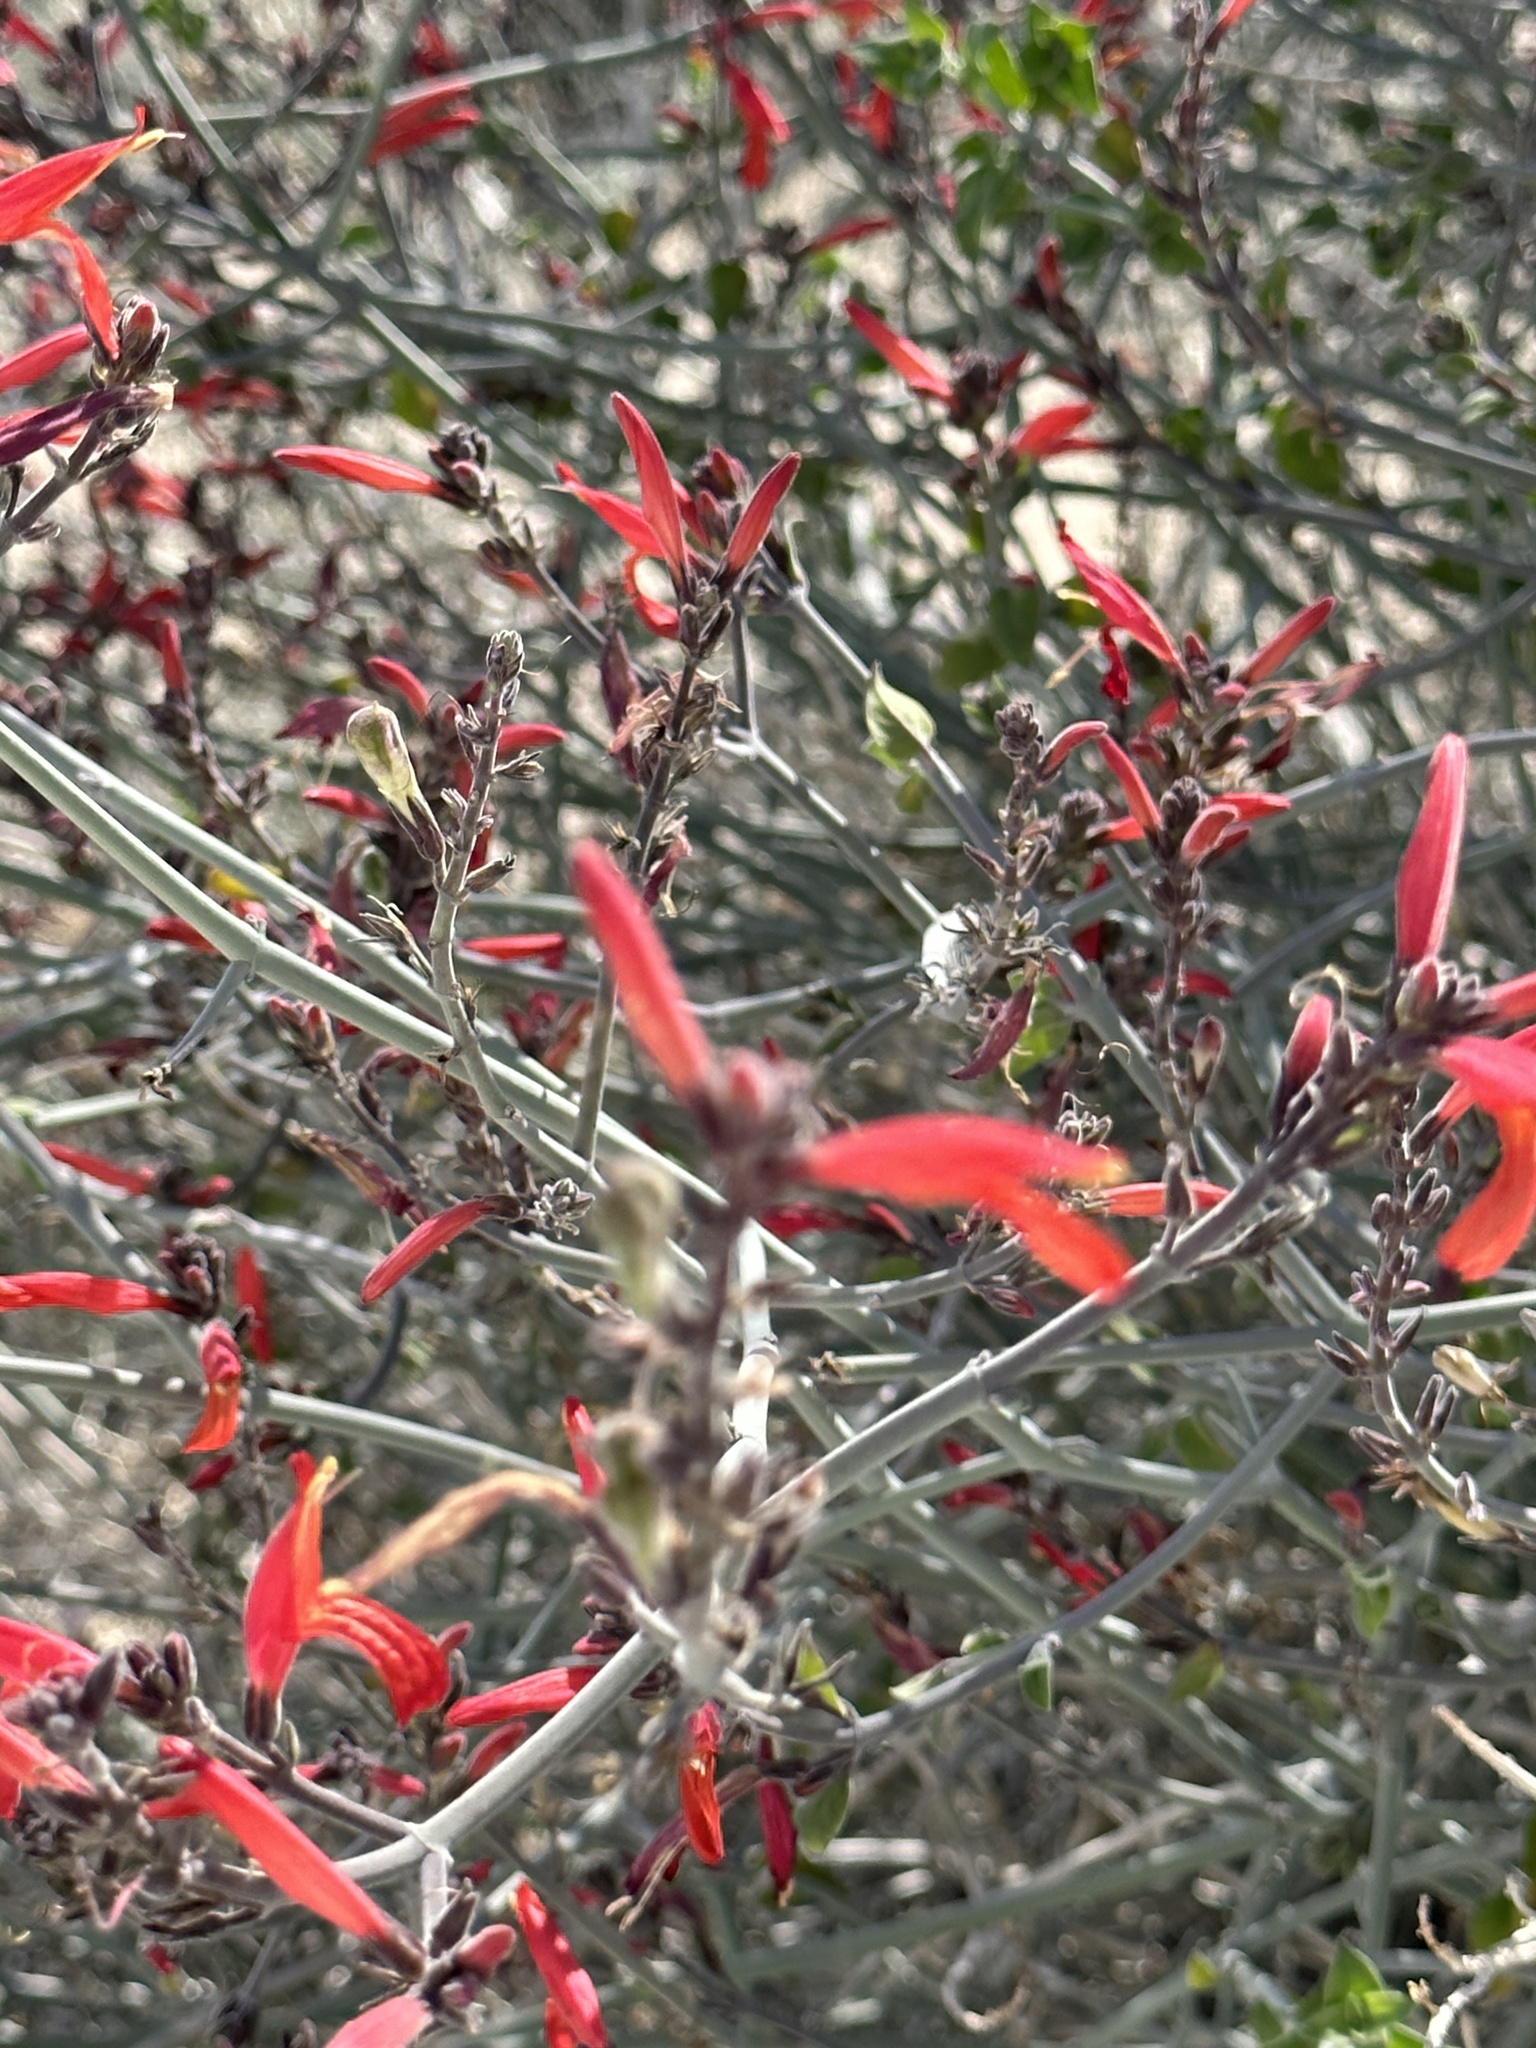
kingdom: Plantae
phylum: Tracheophyta
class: Magnoliopsida
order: Lamiales
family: Acanthaceae
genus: Justicia
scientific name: Justicia californica
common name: Chuparosa-honeysuckle
